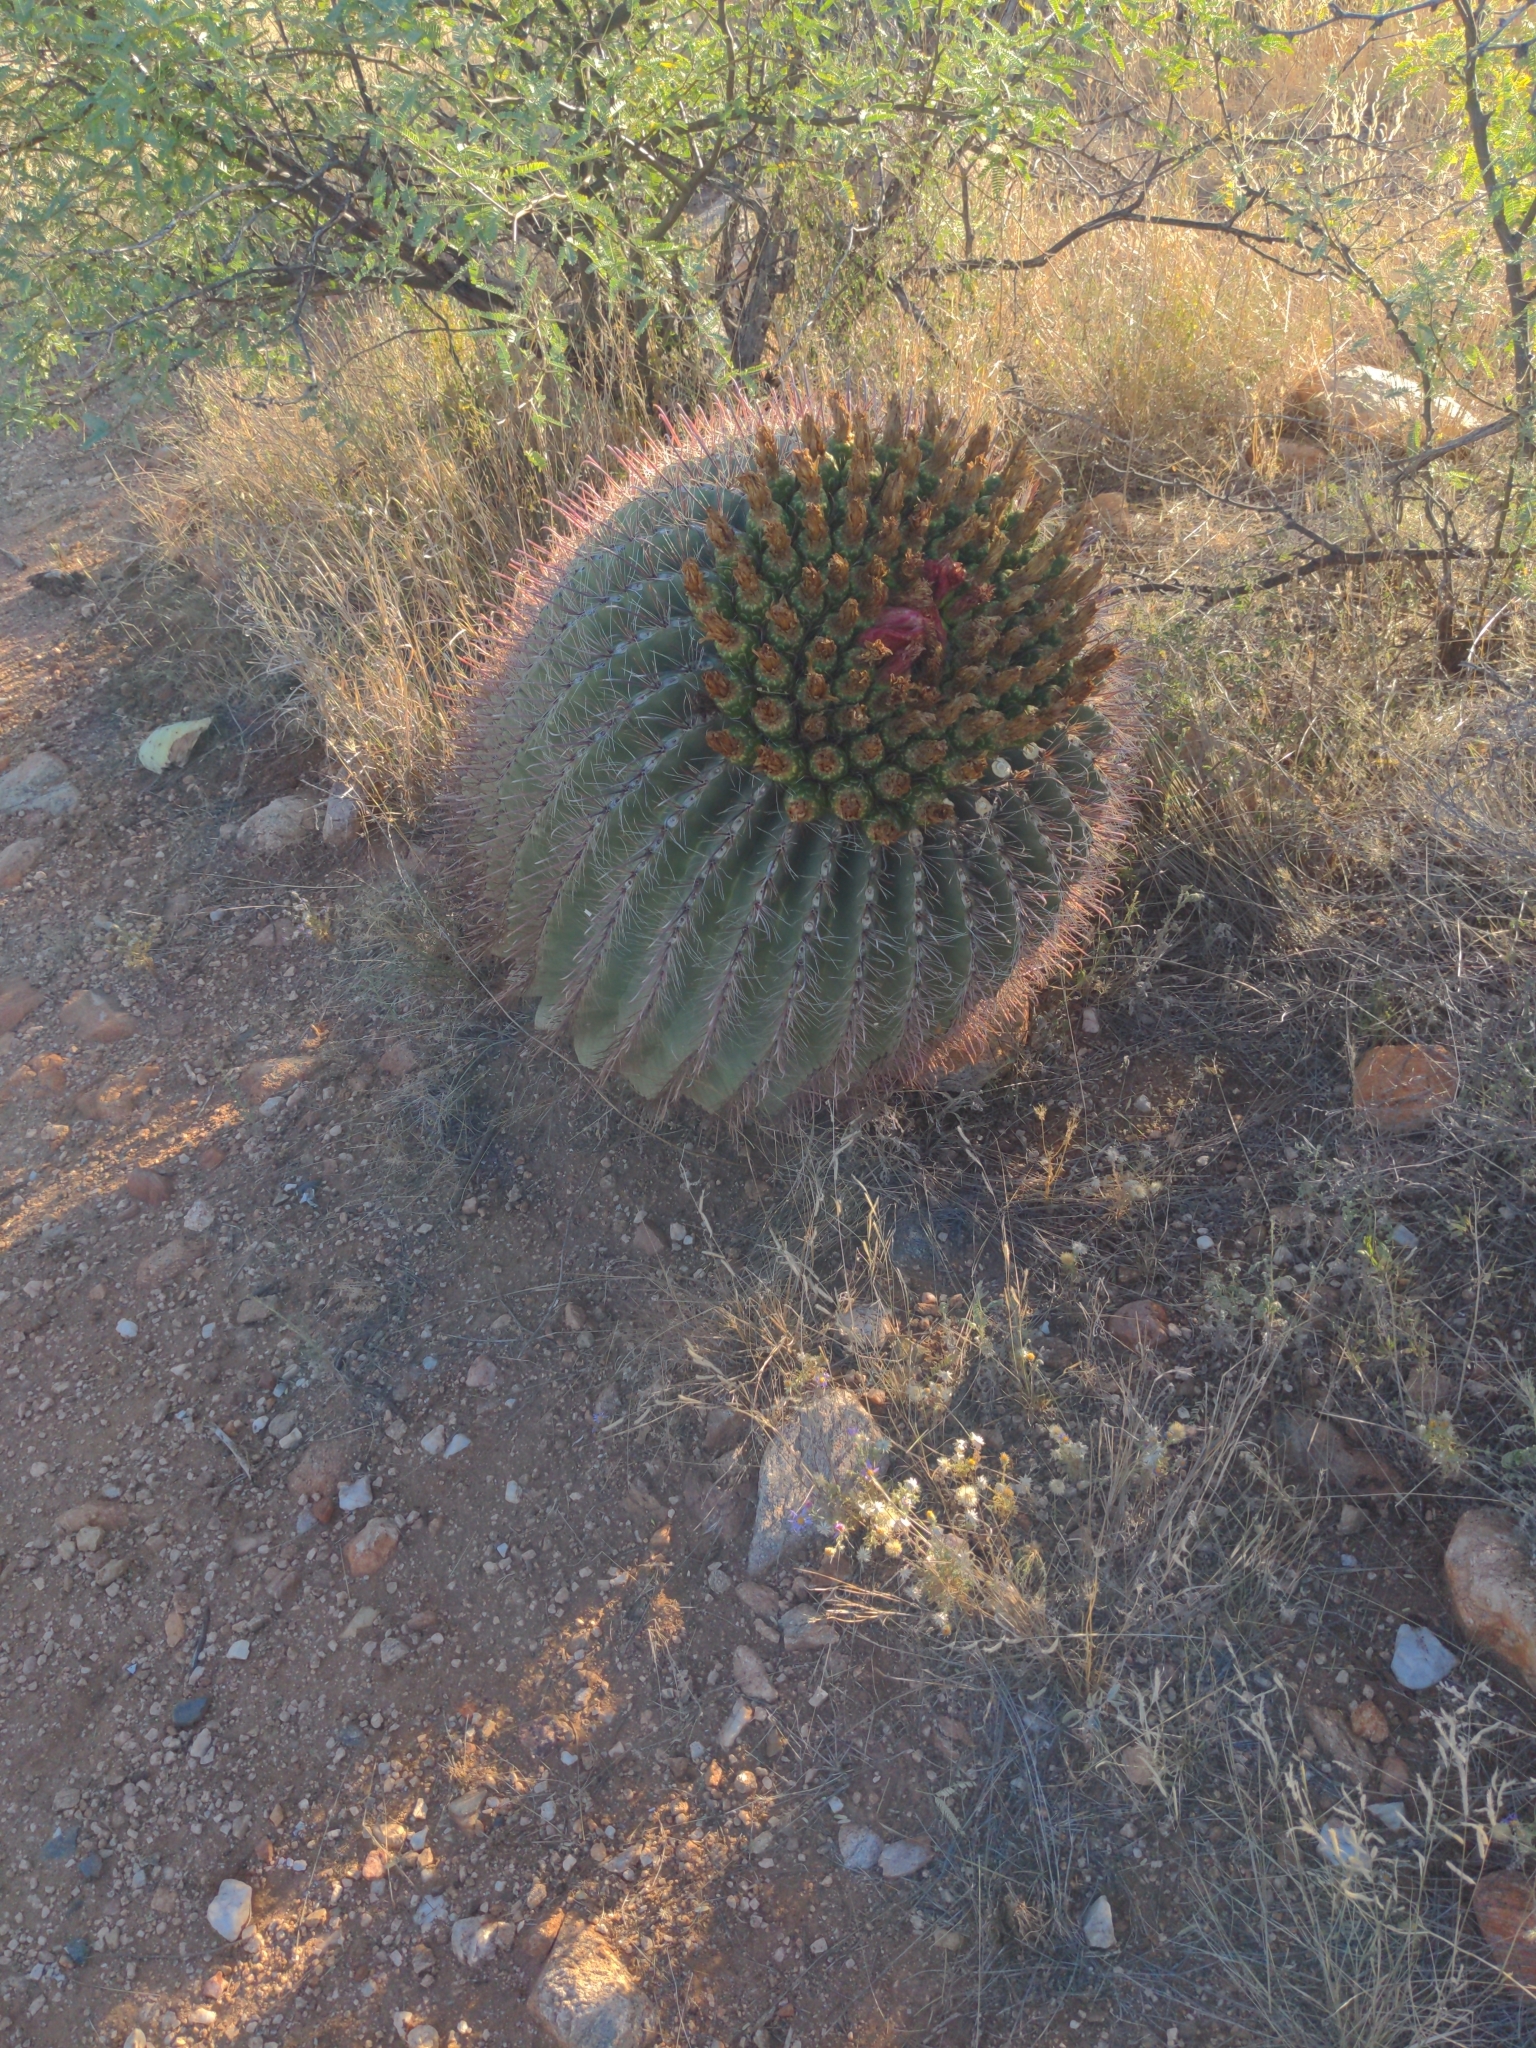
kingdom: Plantae
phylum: Tracheophyta
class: Magnoliopsida
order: Caryophyllales
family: Cactaceae
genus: Ferocactus
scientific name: Ferocactus wislizeni
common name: Candy barrel cactus
